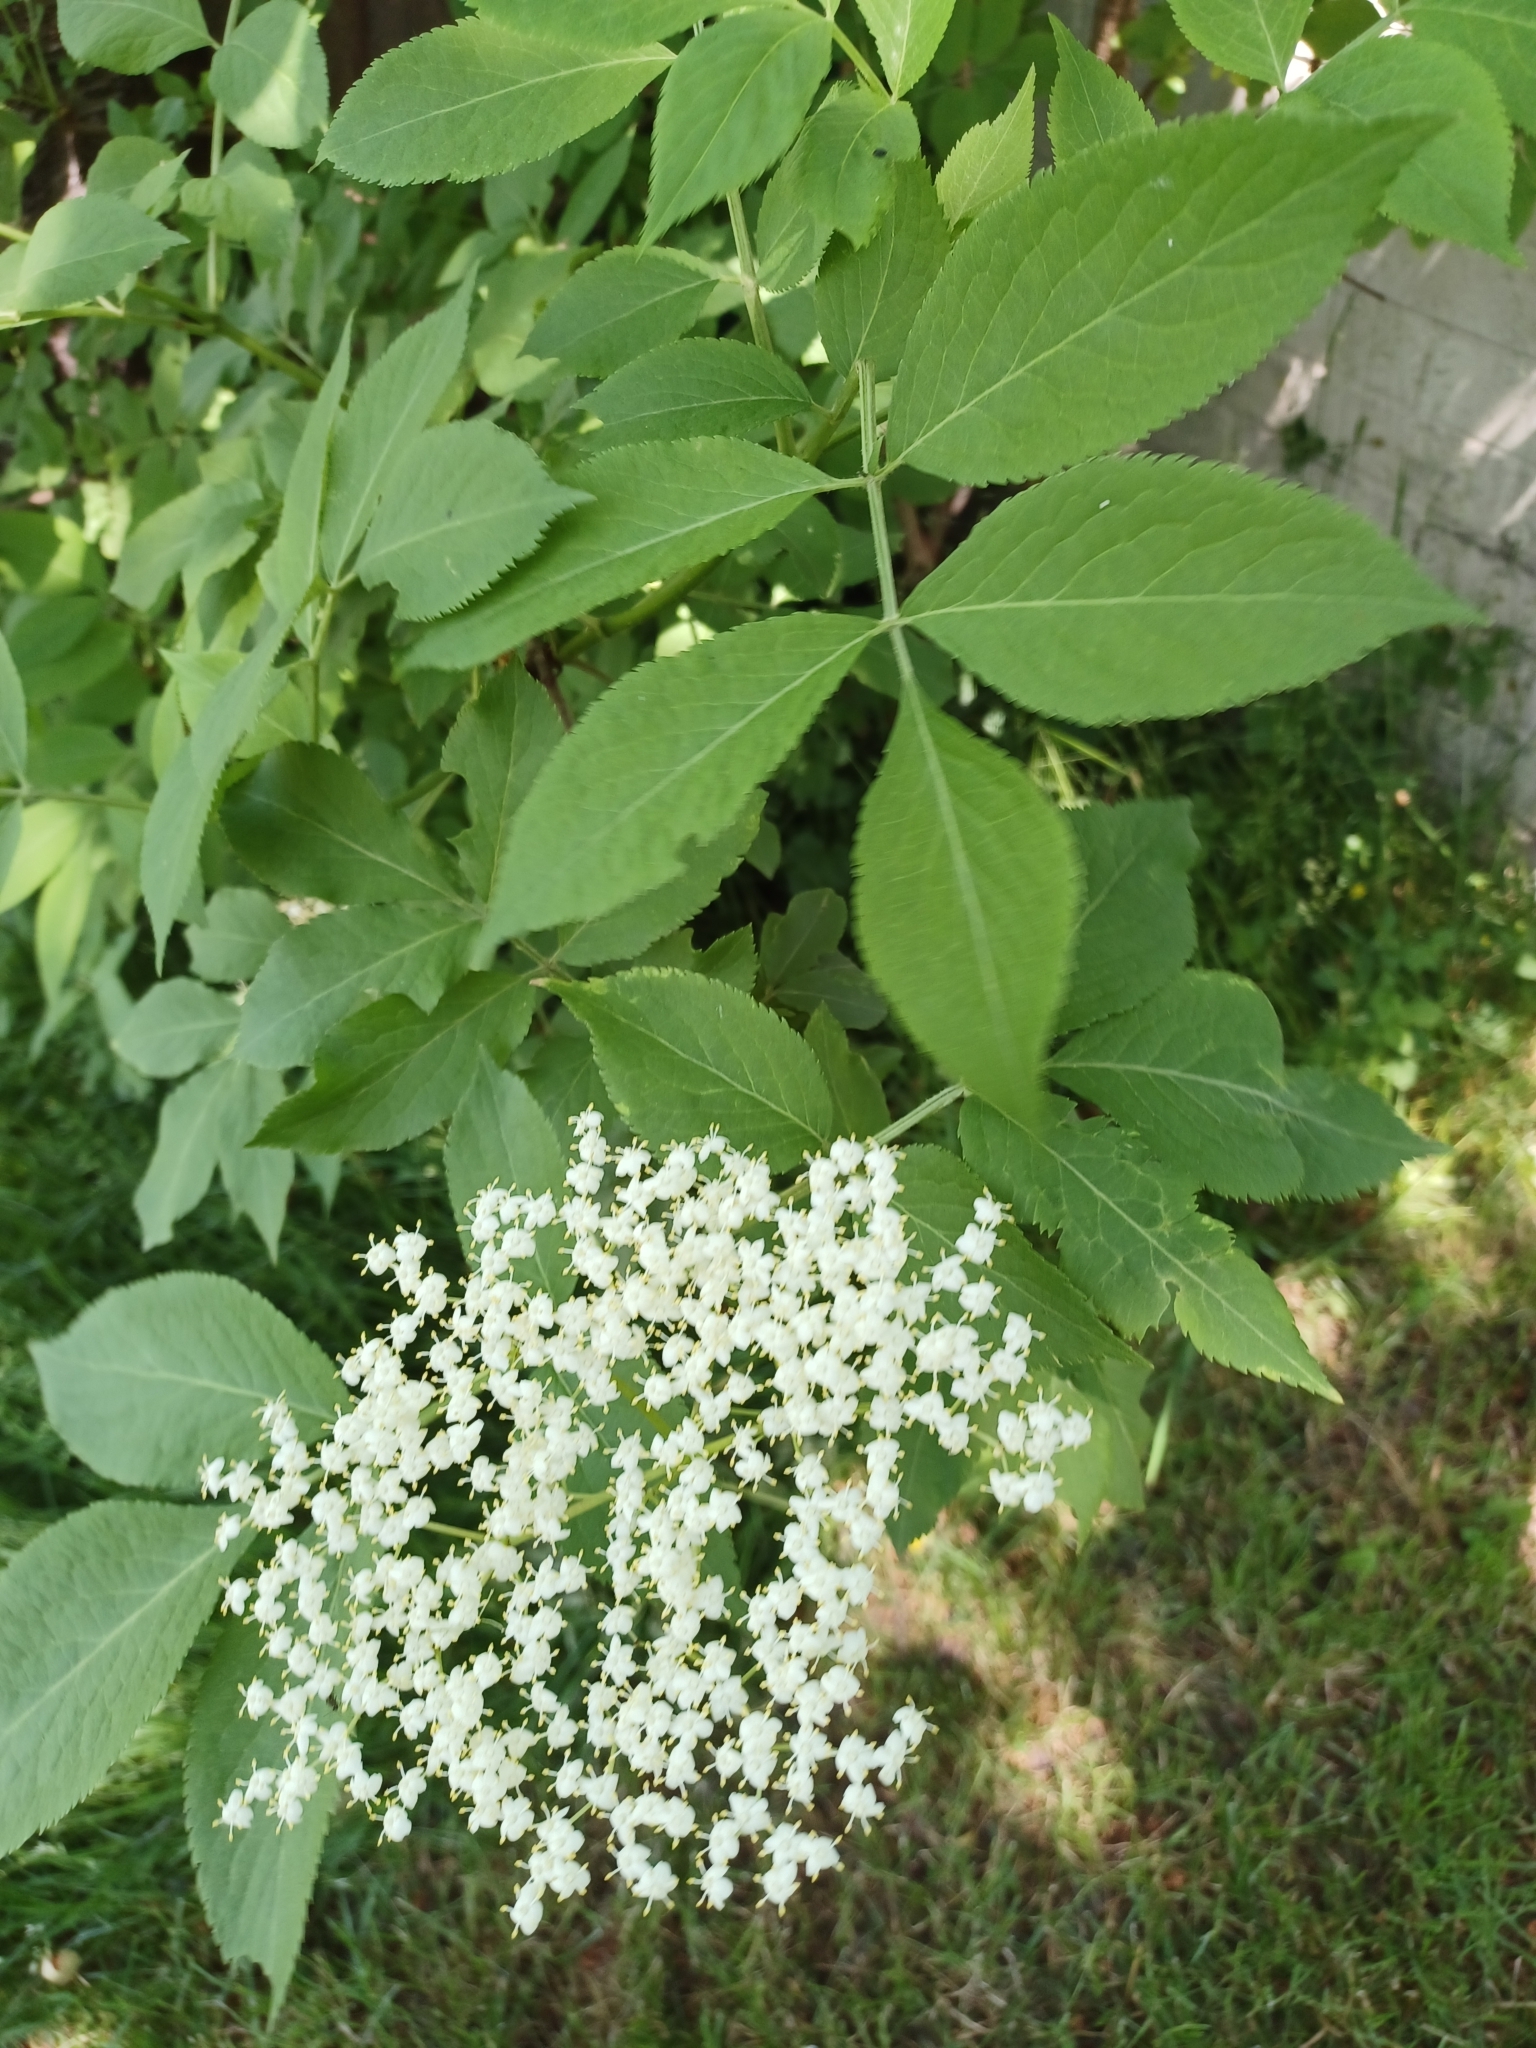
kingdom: Plantae
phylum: Tracheophyta
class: Magnoliopsida
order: Dipsacales
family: Viburnaceae
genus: Sambucus
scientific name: Sambucus nigra
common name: Elder
